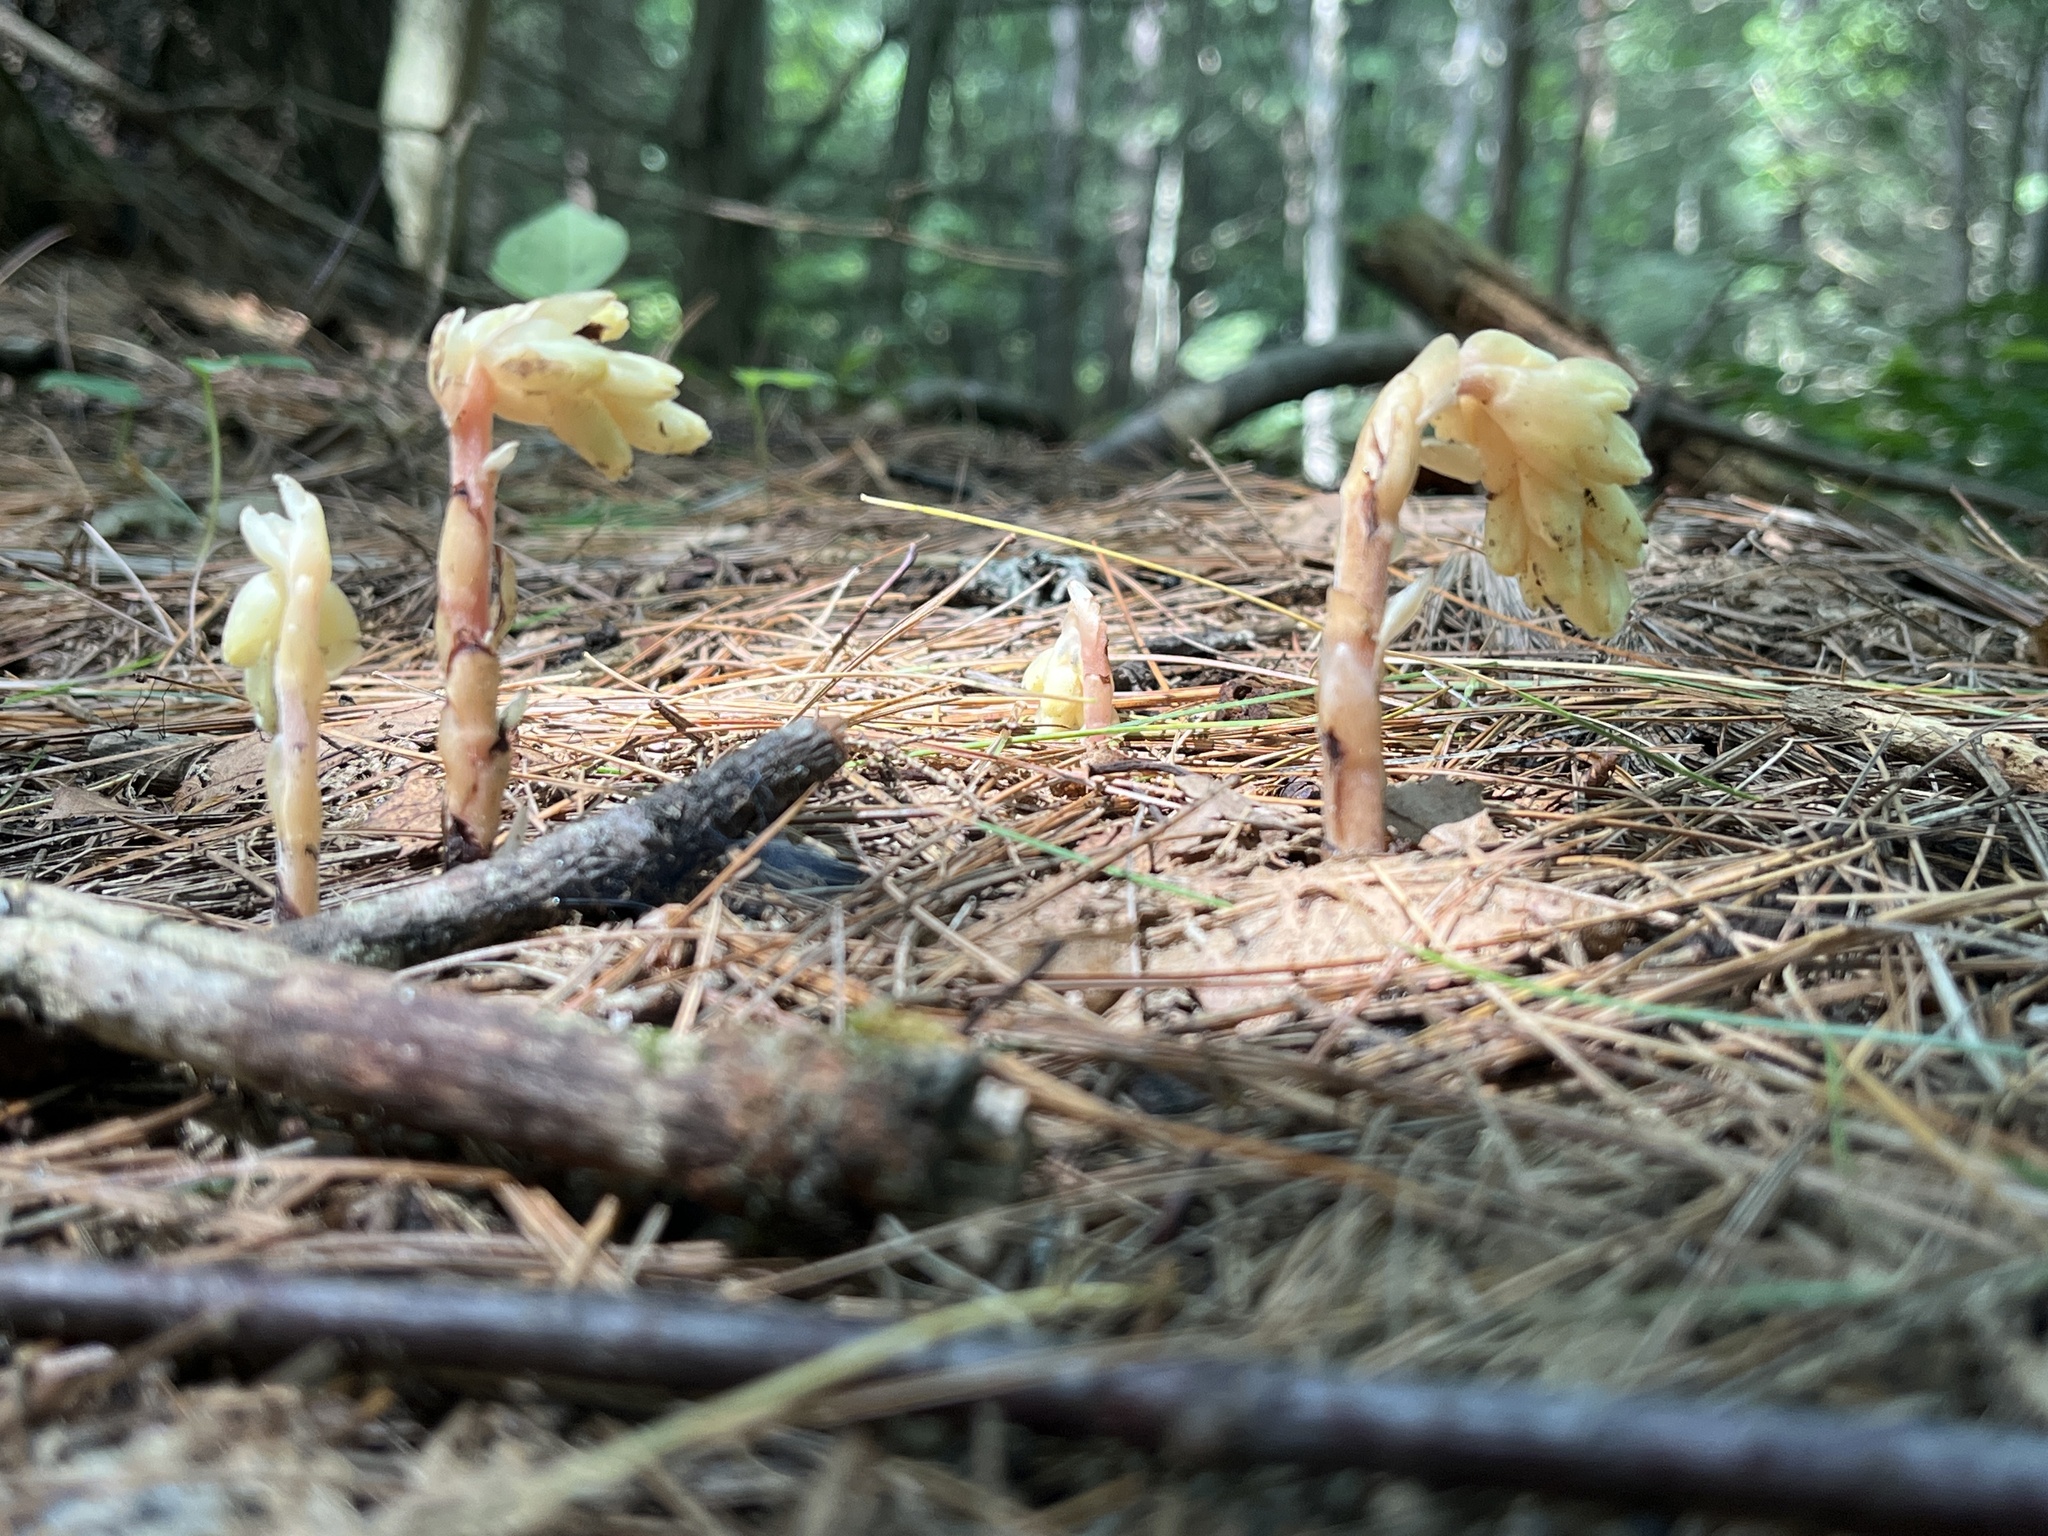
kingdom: Plantae
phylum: Tracheophyta
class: Magnoliopsida
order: Ericales
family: Ericaceae
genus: Hypopitys
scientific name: Hypopitys monotropa
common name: Yellow bird's-nest
